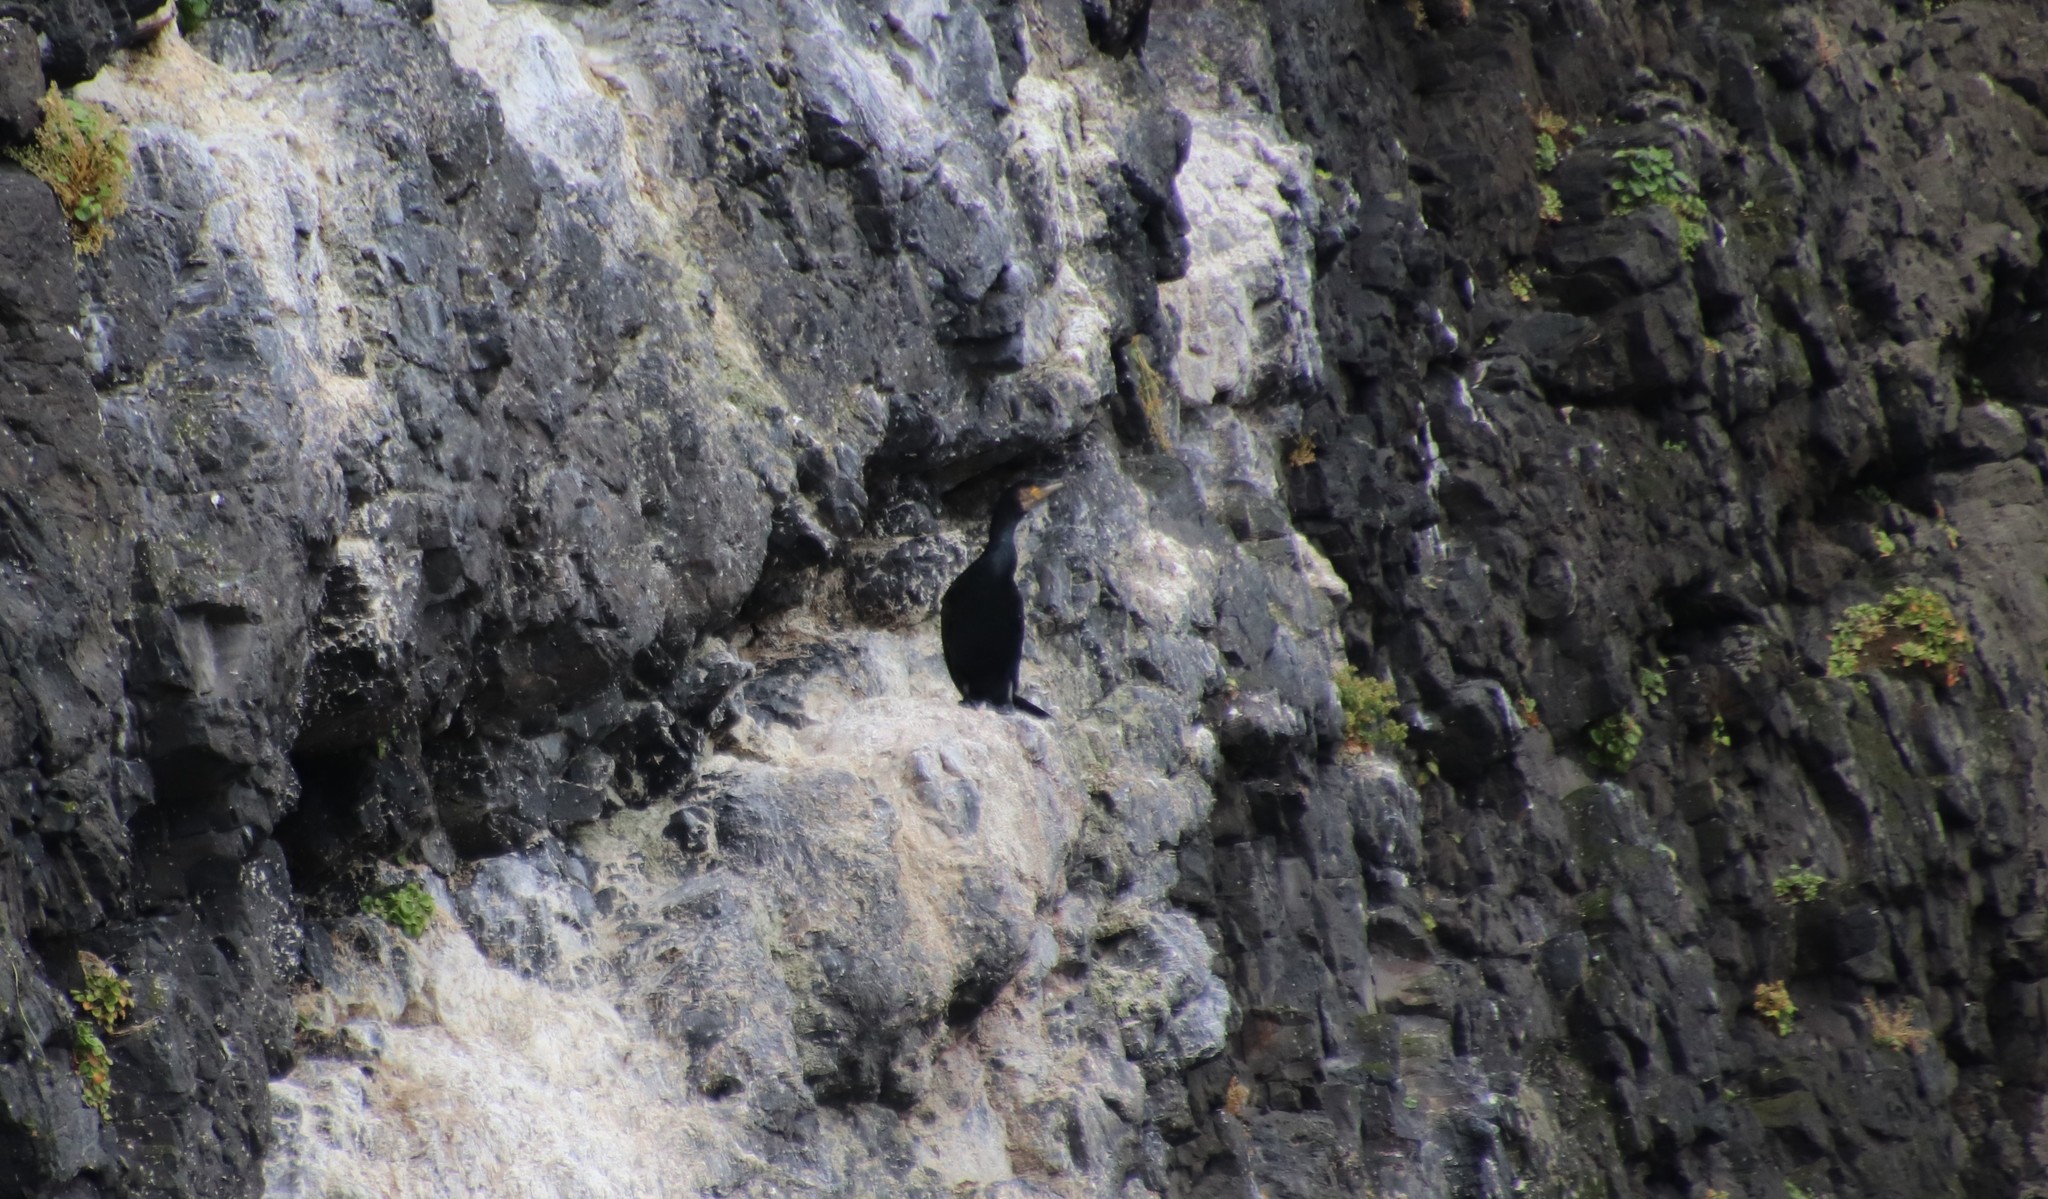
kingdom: Animalia
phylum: Chordata
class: Aves
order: Suliformes
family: Phalacrocoracidae
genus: Phalacrocorax
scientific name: Phalacrocorax carbo
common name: Great cormorant
